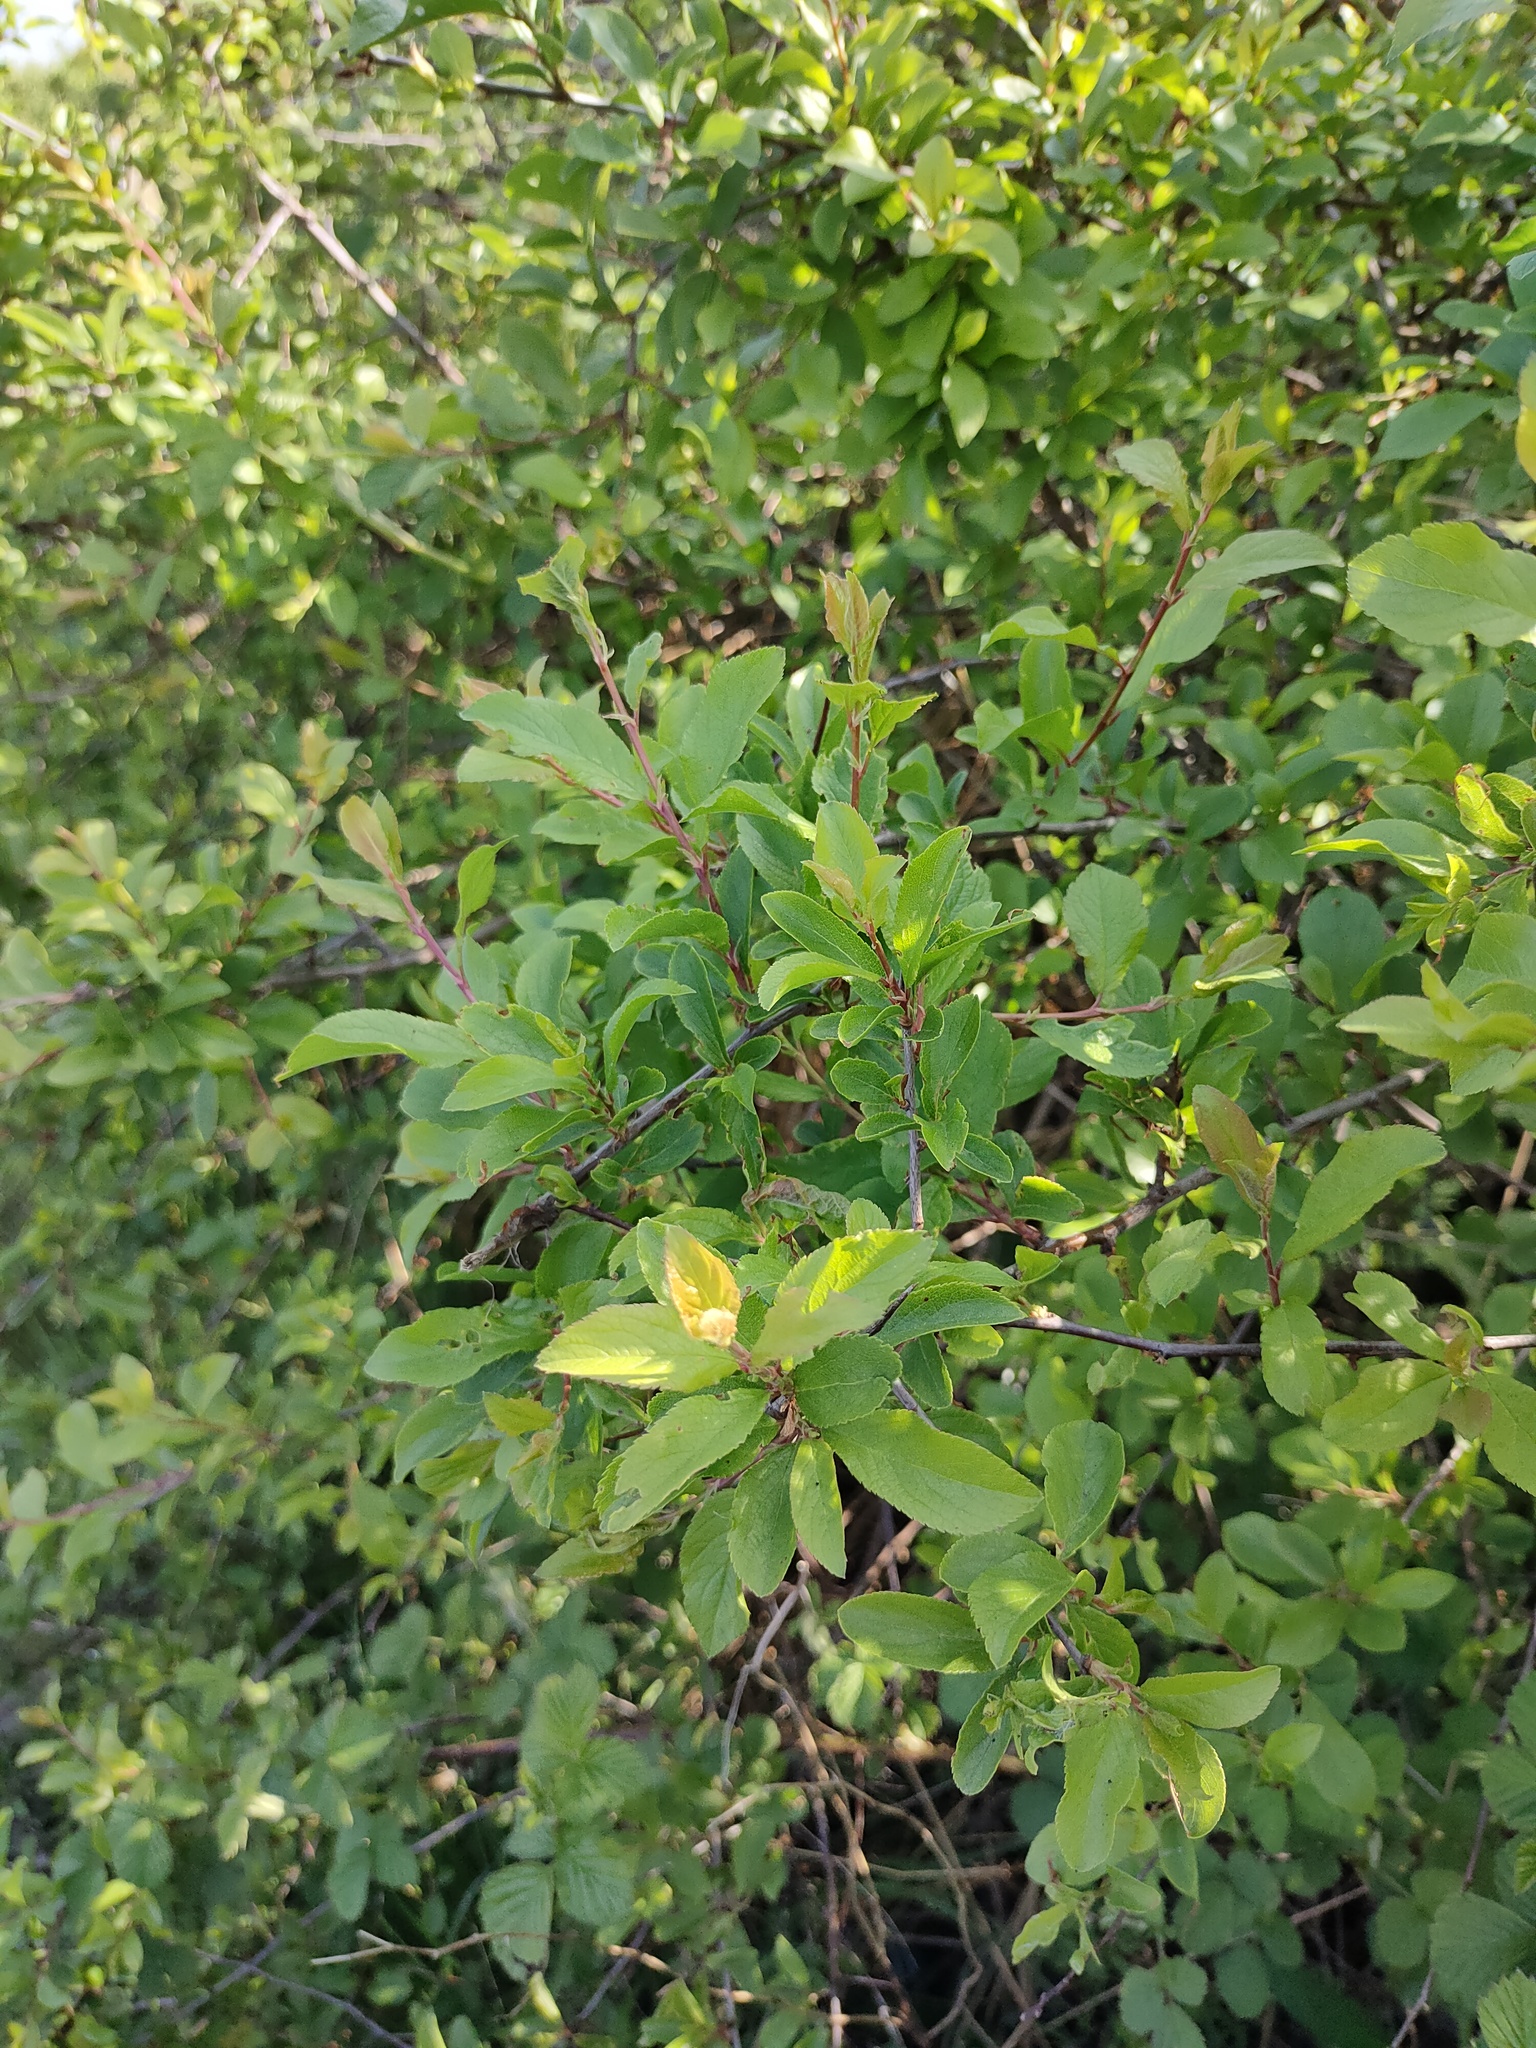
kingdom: Plantae
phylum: Tracheophyta
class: Magnoliopsida
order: Rosales
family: Rosaceae
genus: Prunus
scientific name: Prunus spinosa
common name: Blackthorn
